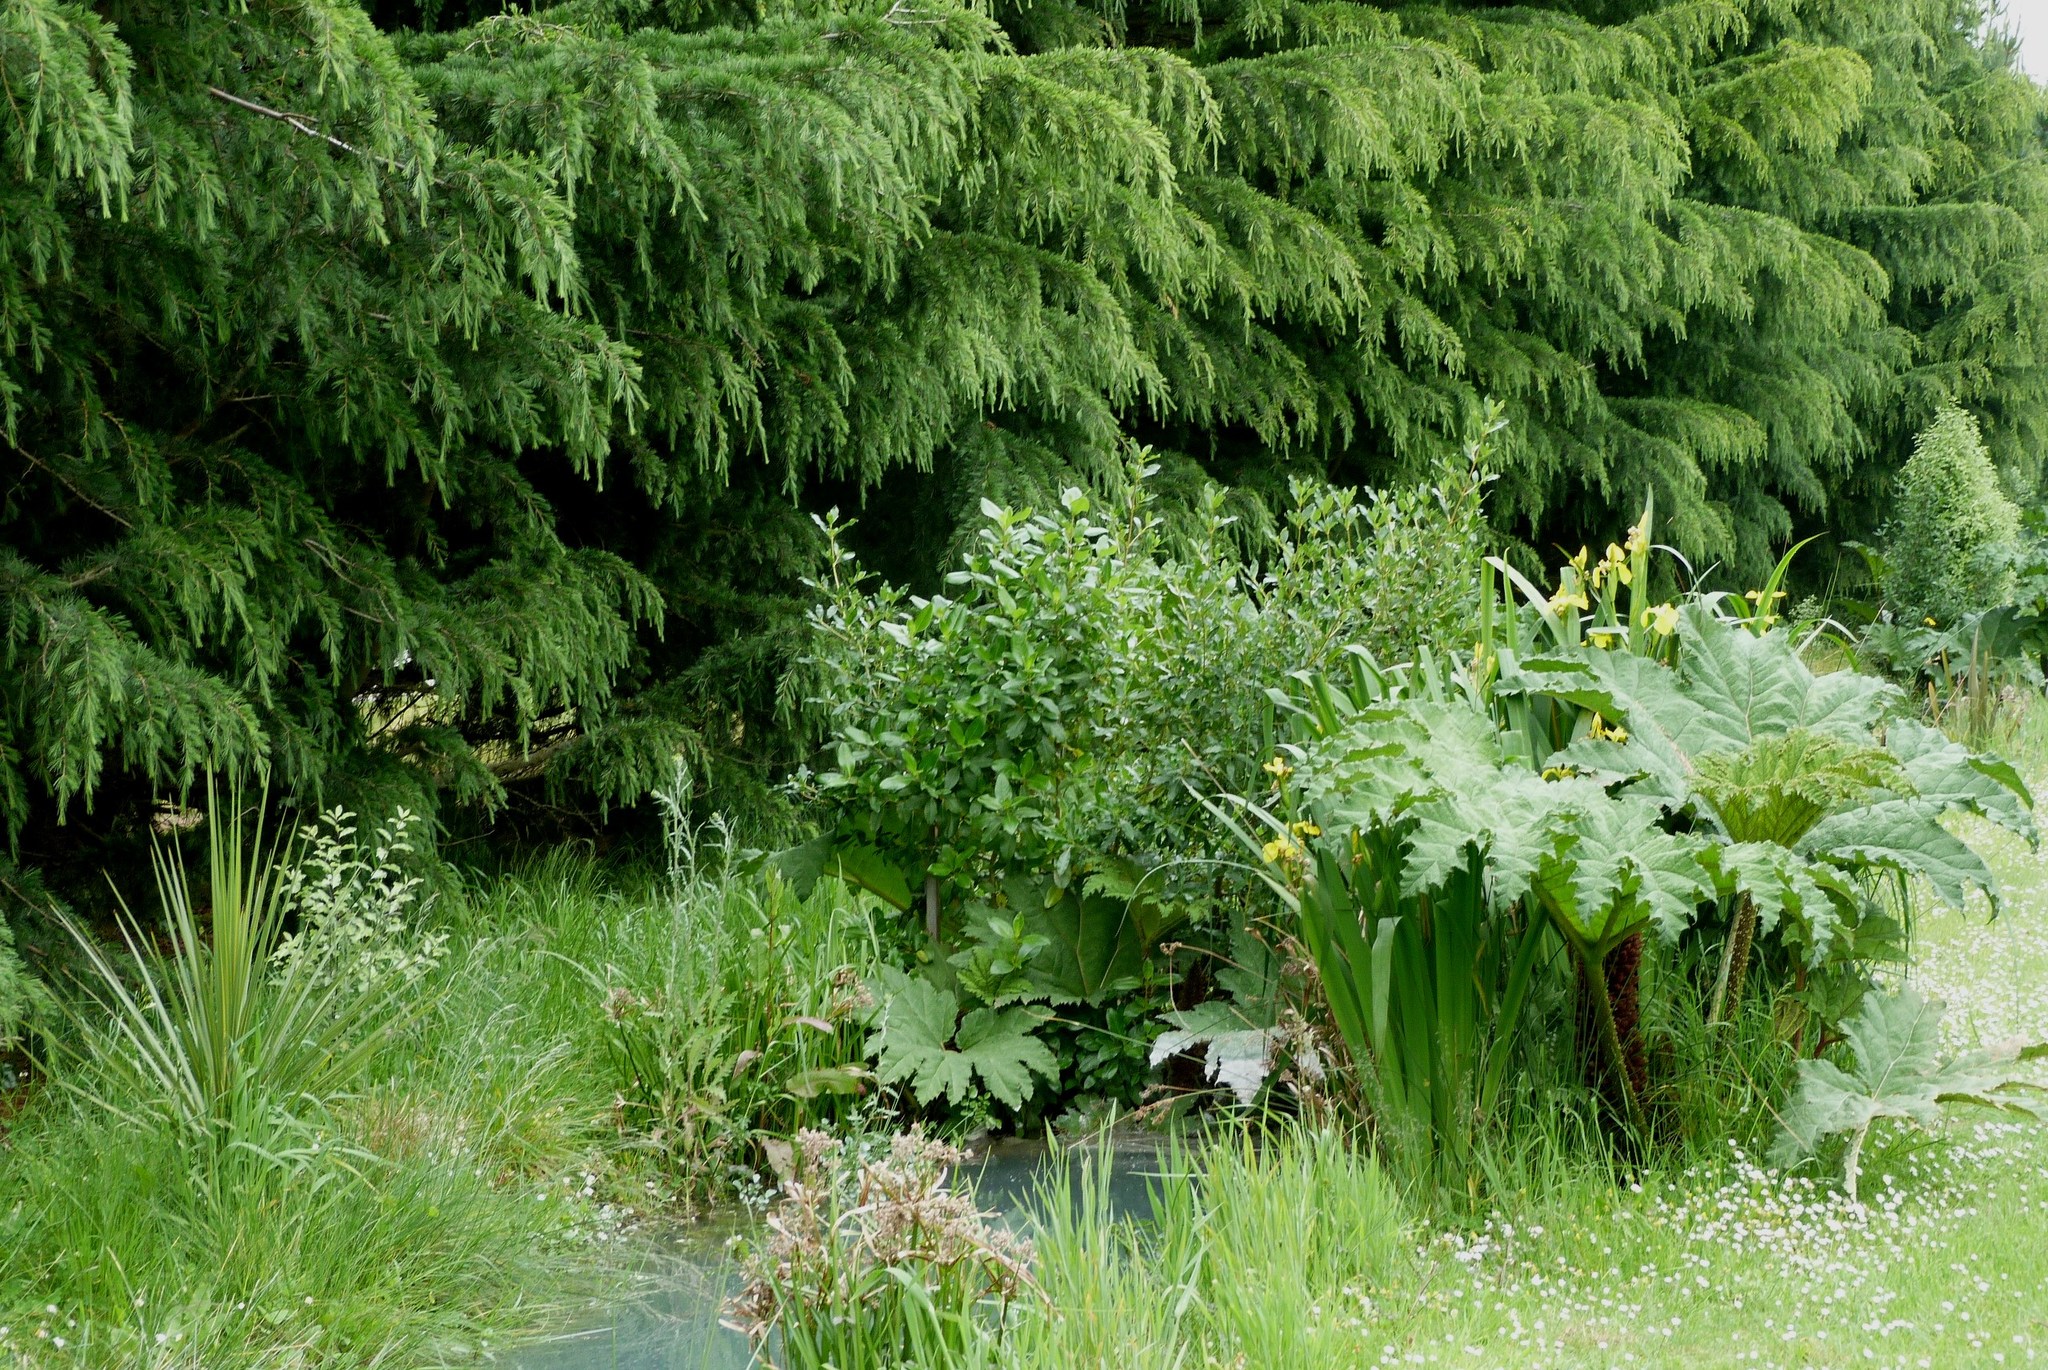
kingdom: Plantae
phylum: Tracheophyta
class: Magnoliopsida
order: Gunnerales
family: Gunneraceae
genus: Gunnera
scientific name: Gunnera tinctoria
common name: Giant-rhubarb
